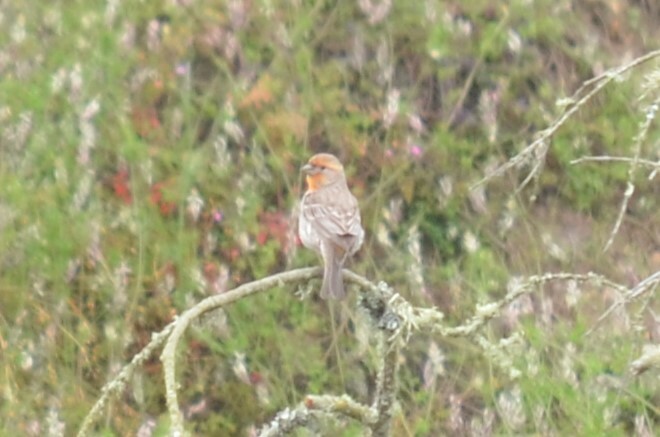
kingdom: Animalia
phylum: Chordata
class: Aves
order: Passeriformes
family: Fringillidae
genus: Haemorhous
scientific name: Haemorhous mexicanus
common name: House finch
